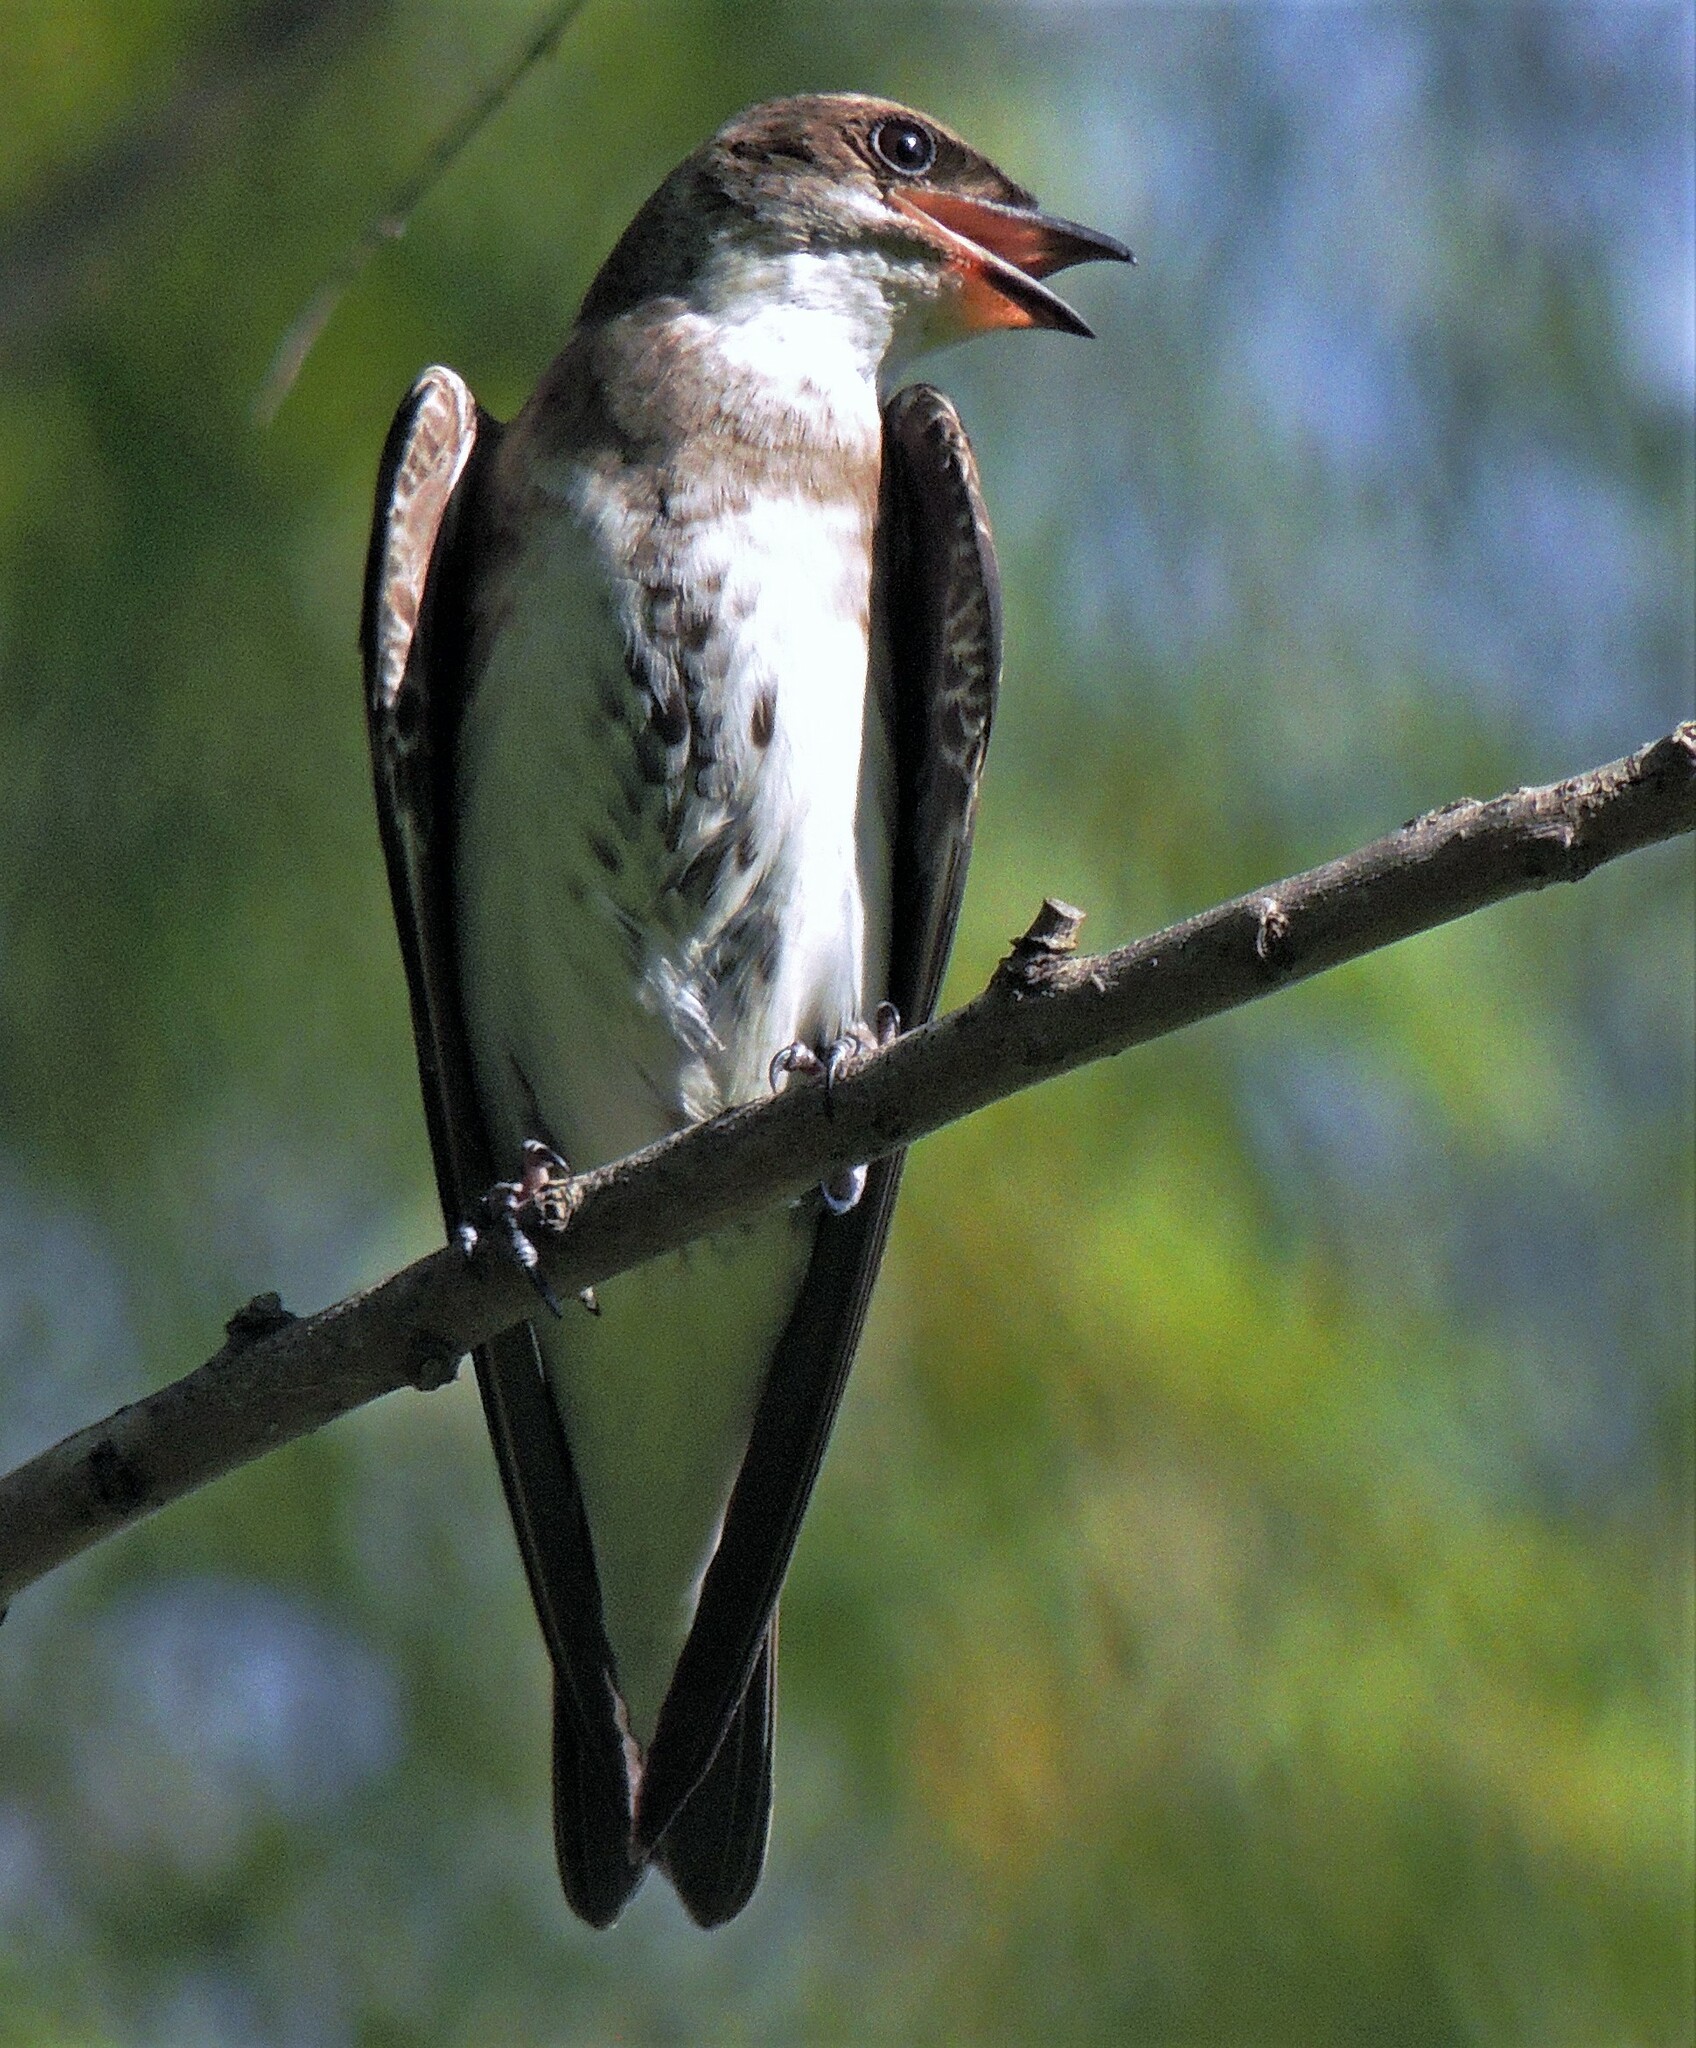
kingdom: Animalia
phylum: Chordata
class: Aves
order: Passeriformes
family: Hirundinidae
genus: Progne
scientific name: Progne tapera
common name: Brown-chested martin
